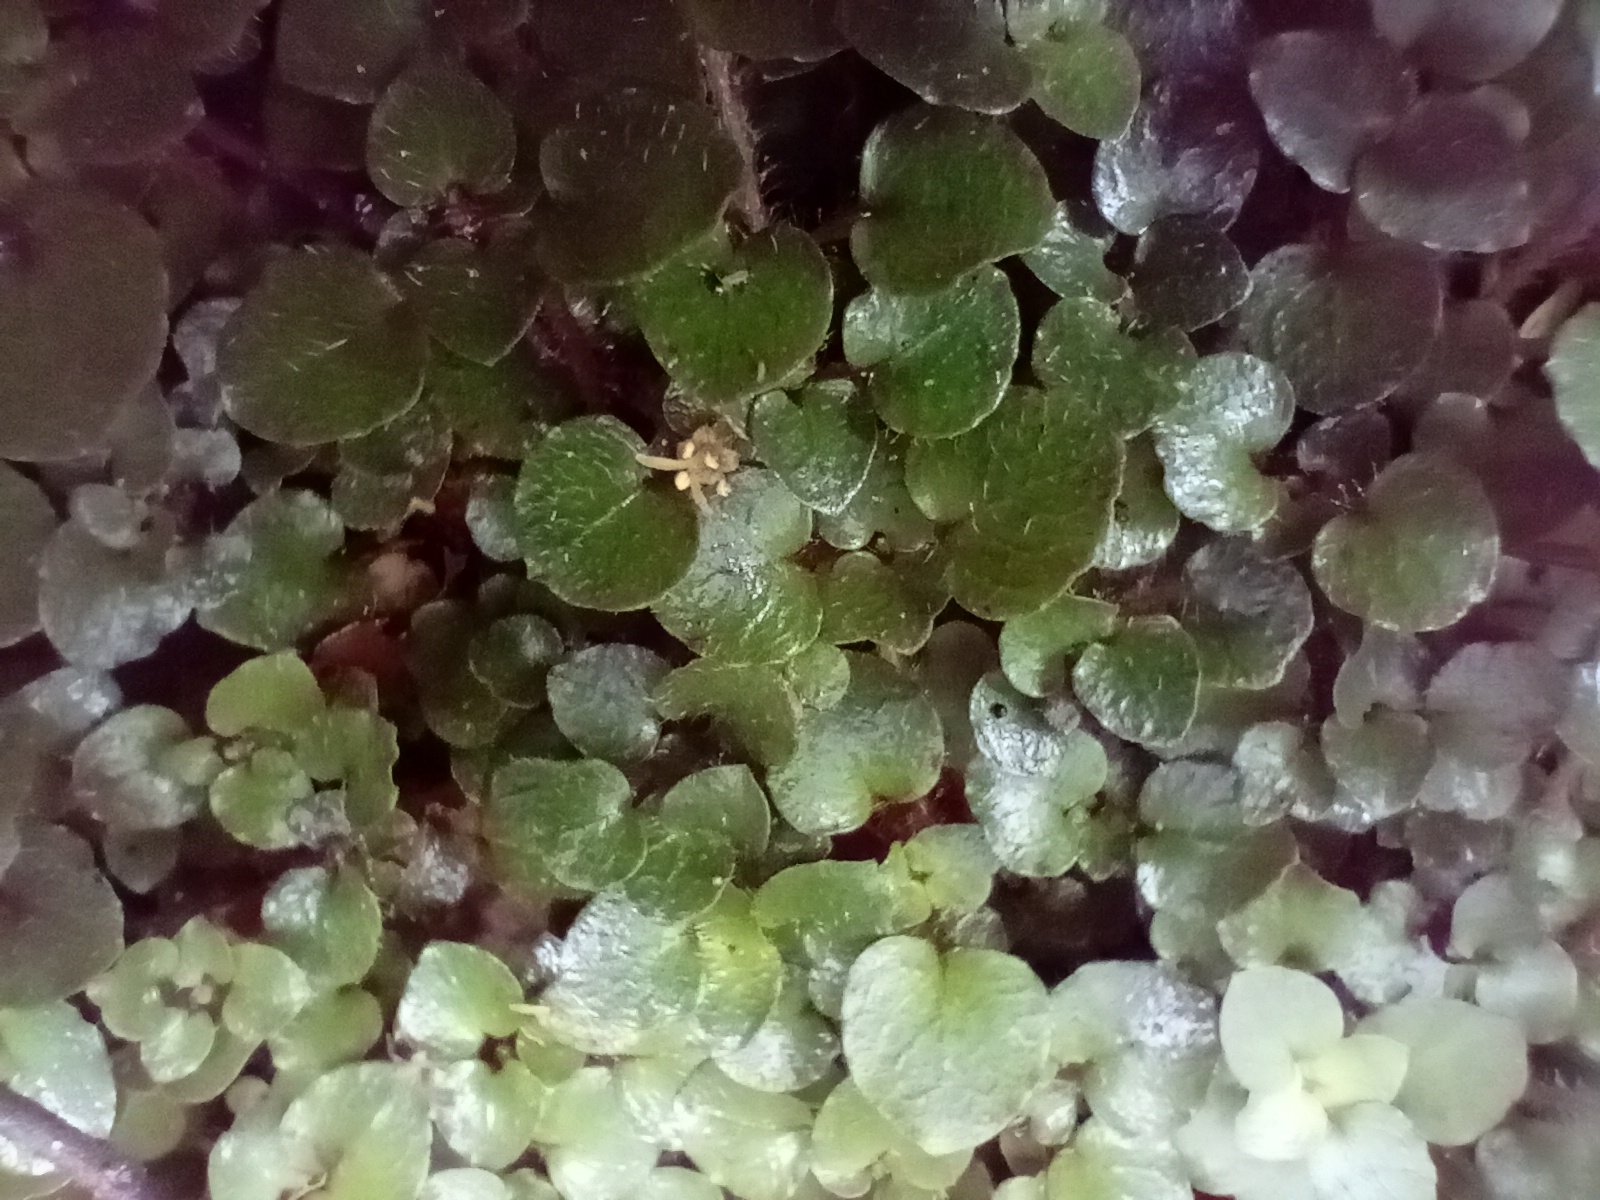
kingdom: Plantae
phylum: Tracheophyta
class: Magnoliopsida
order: Gentianales
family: Rubiaceae
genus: Nertera
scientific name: Nertera villosa
